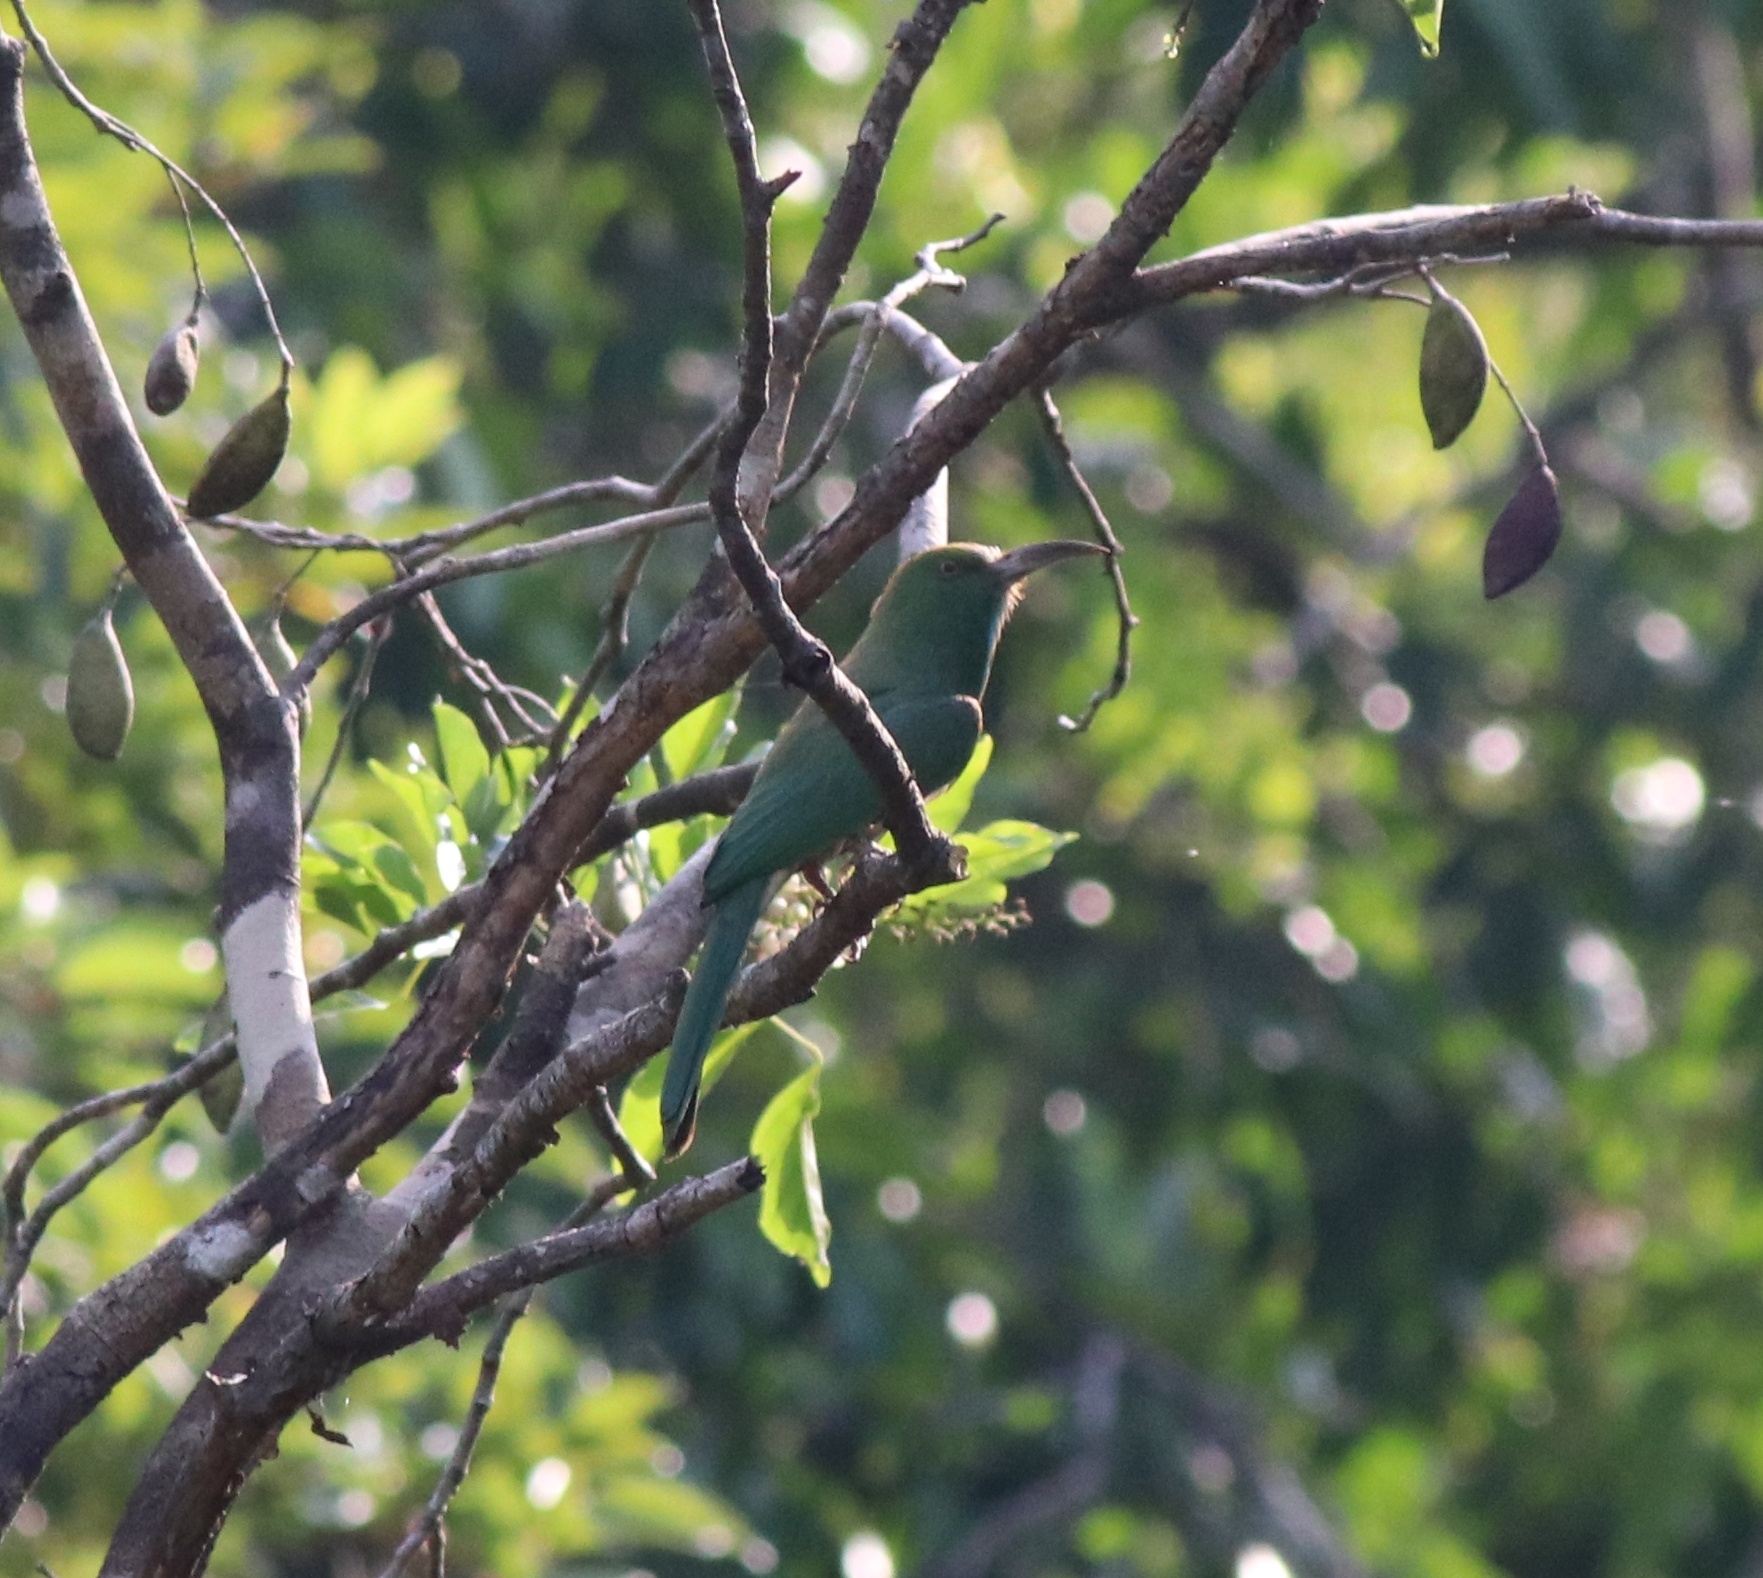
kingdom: Animalia
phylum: Chordata
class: Aves
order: Coraciiformes
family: Meropidae
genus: Nyctyornis
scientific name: Nyctyornis athertoni
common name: Blue-bearded bee-eater
